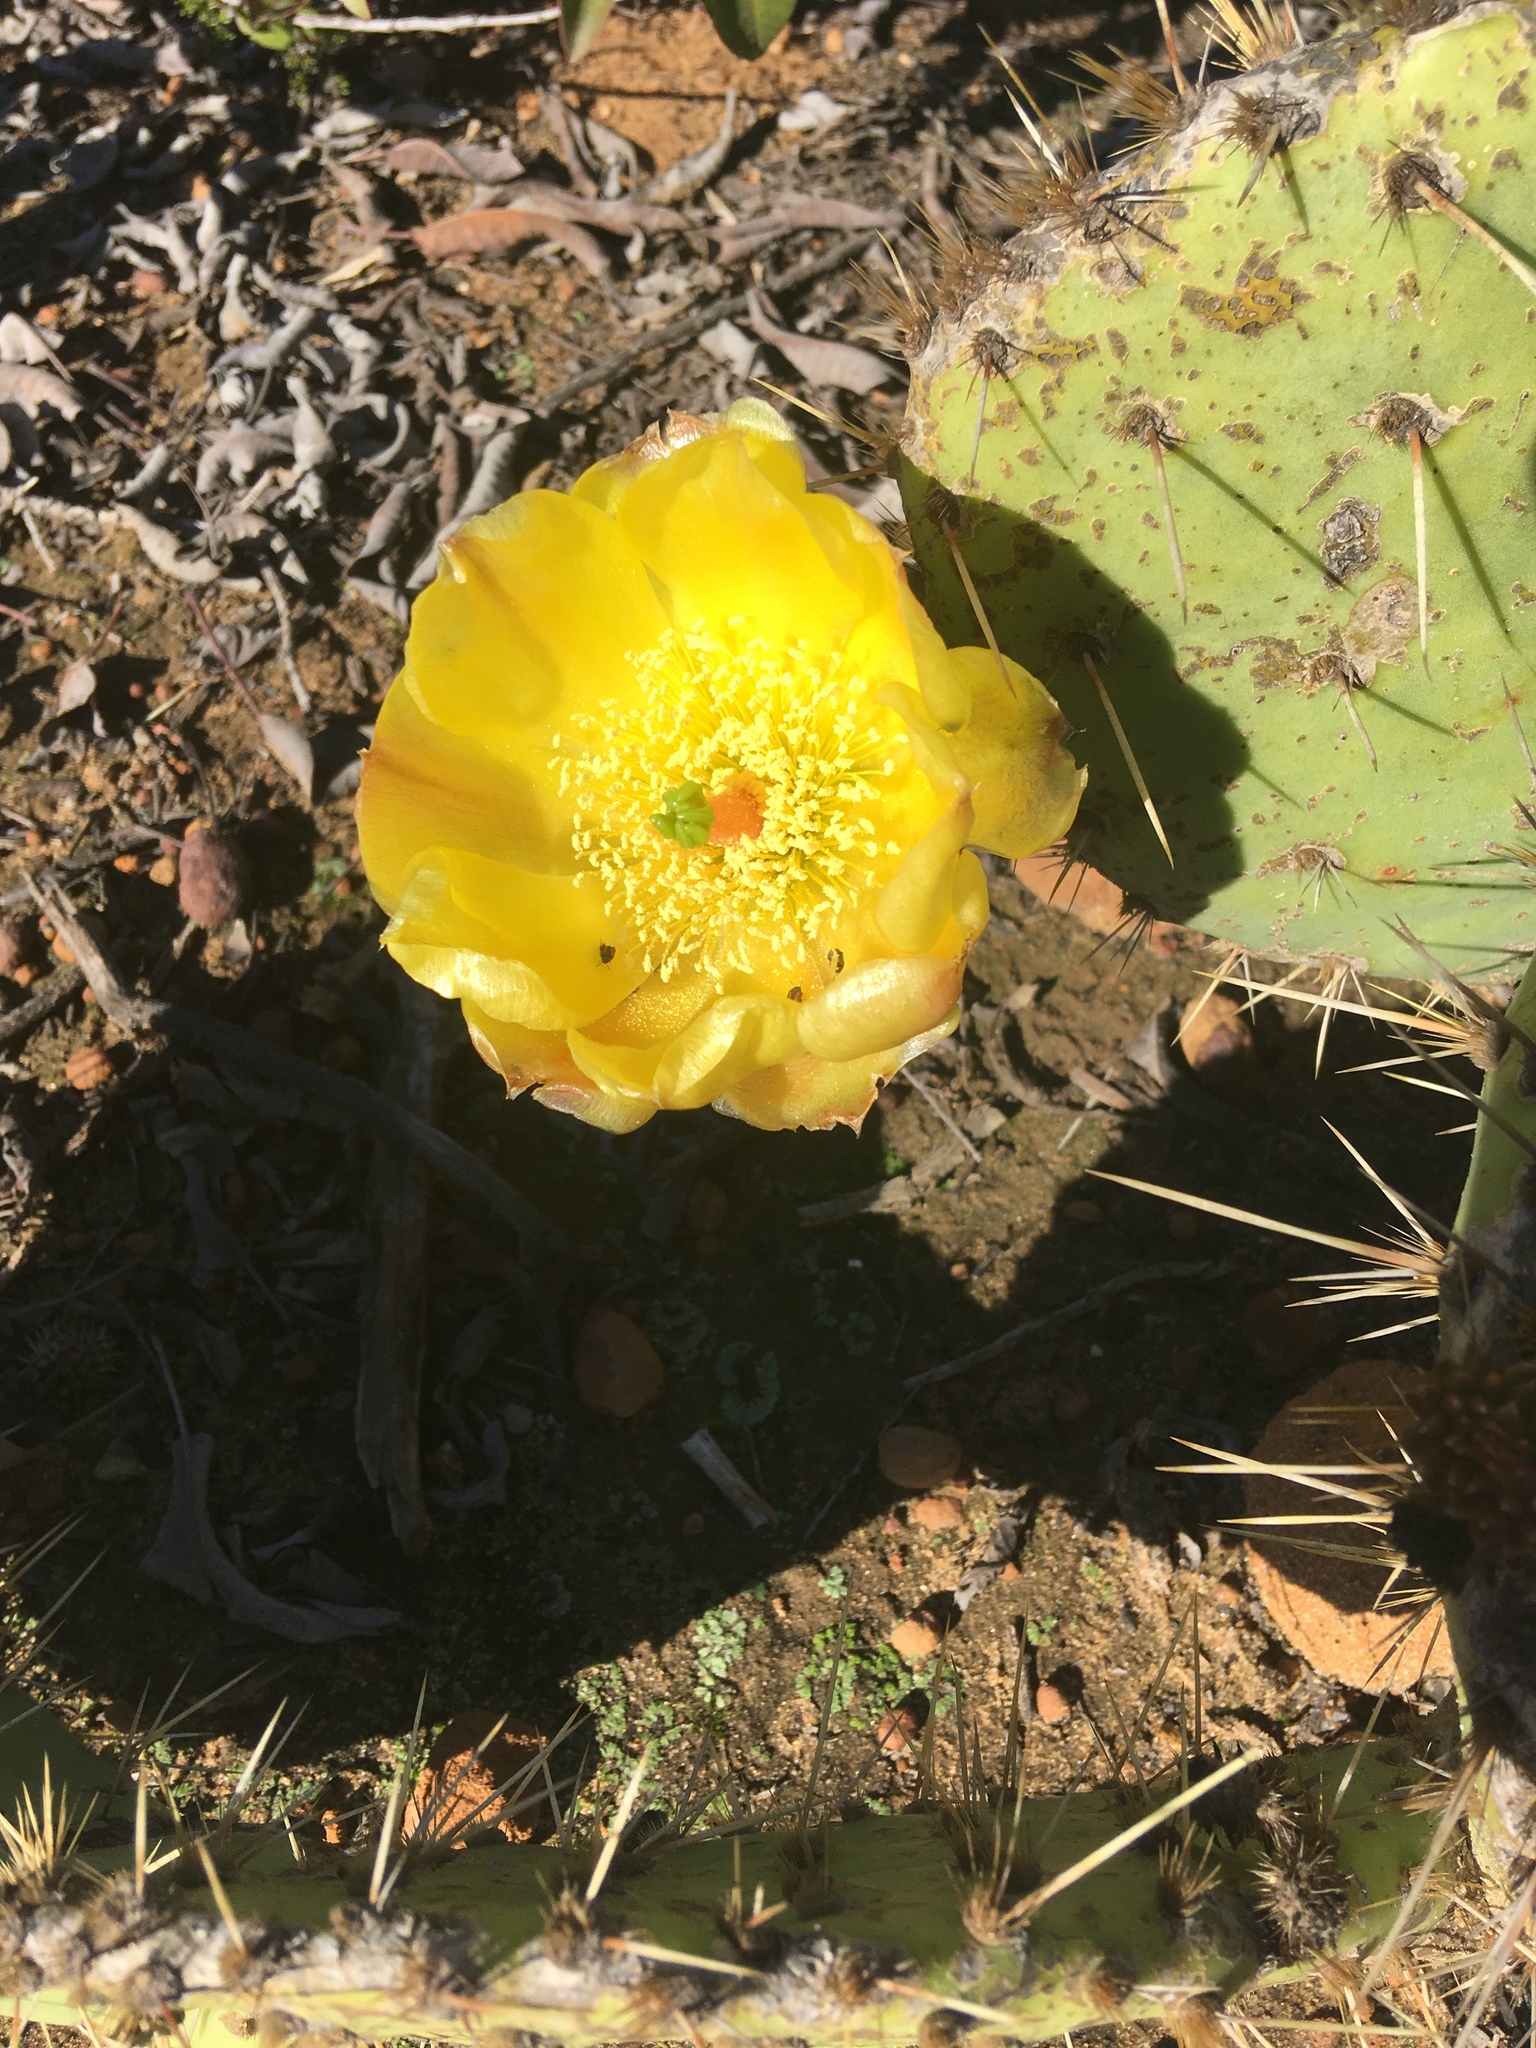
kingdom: Plantae
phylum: Tracheophyta
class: Magnoliopsida
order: Caryophyllales
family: Cactaceae
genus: Opuntia
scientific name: Opuntia littoralis
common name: Coastal prickly-pear
